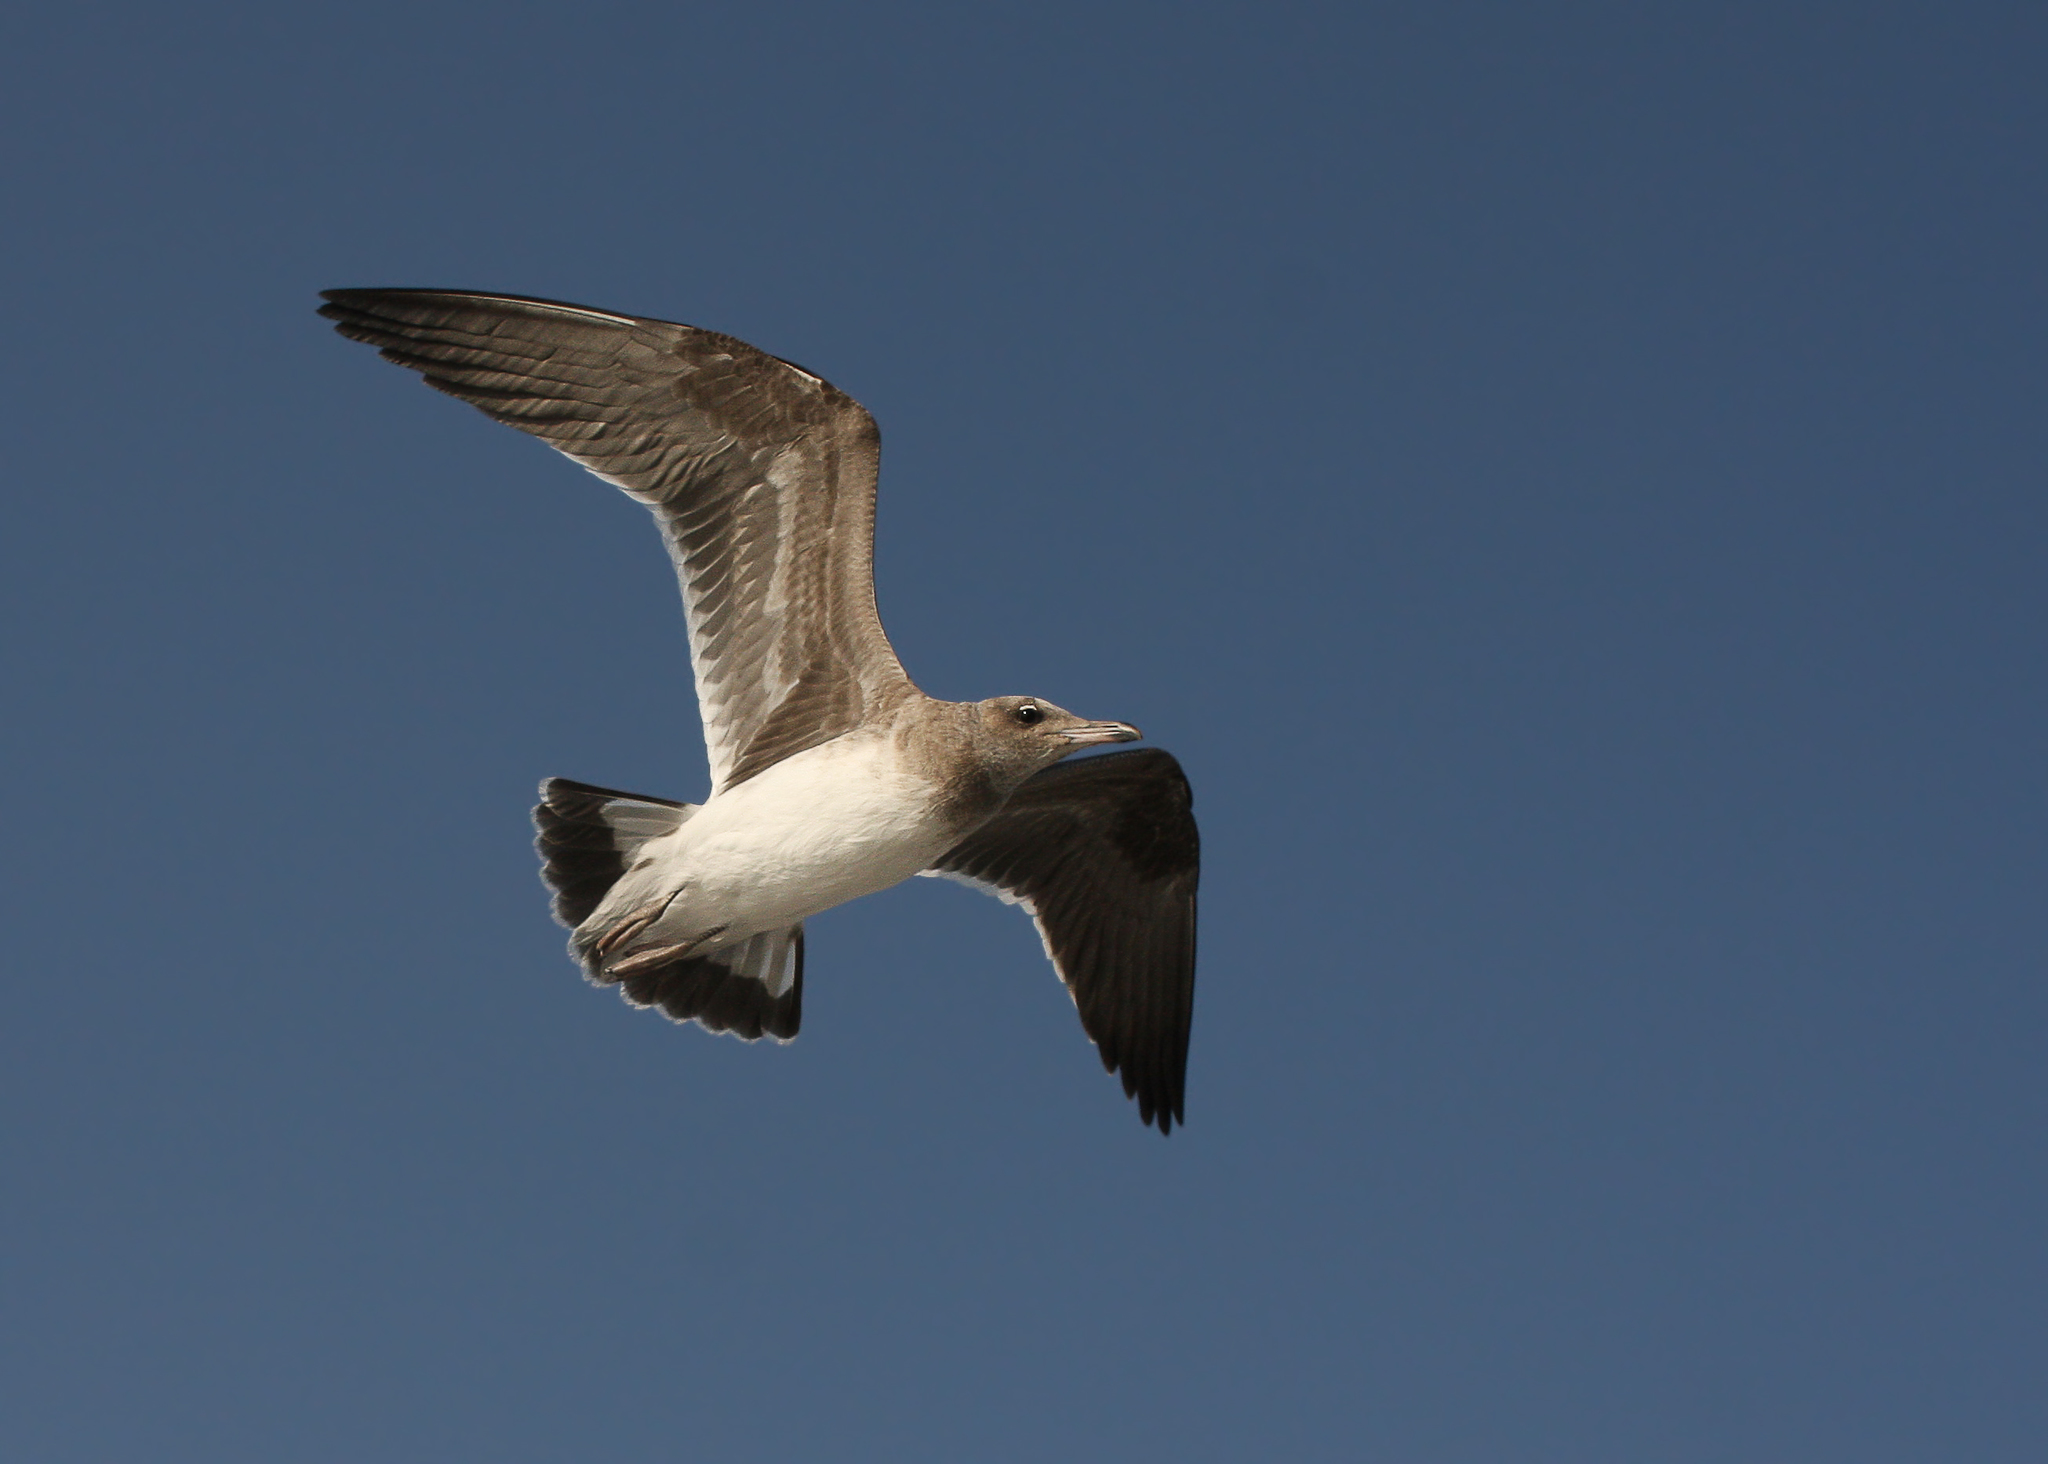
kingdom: Animalia
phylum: Chordata
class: Aves
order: Charadriiformes
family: Laridae
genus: Ichthyaetus
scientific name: Ichthyaetus hemprichii
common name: Sooty gull
